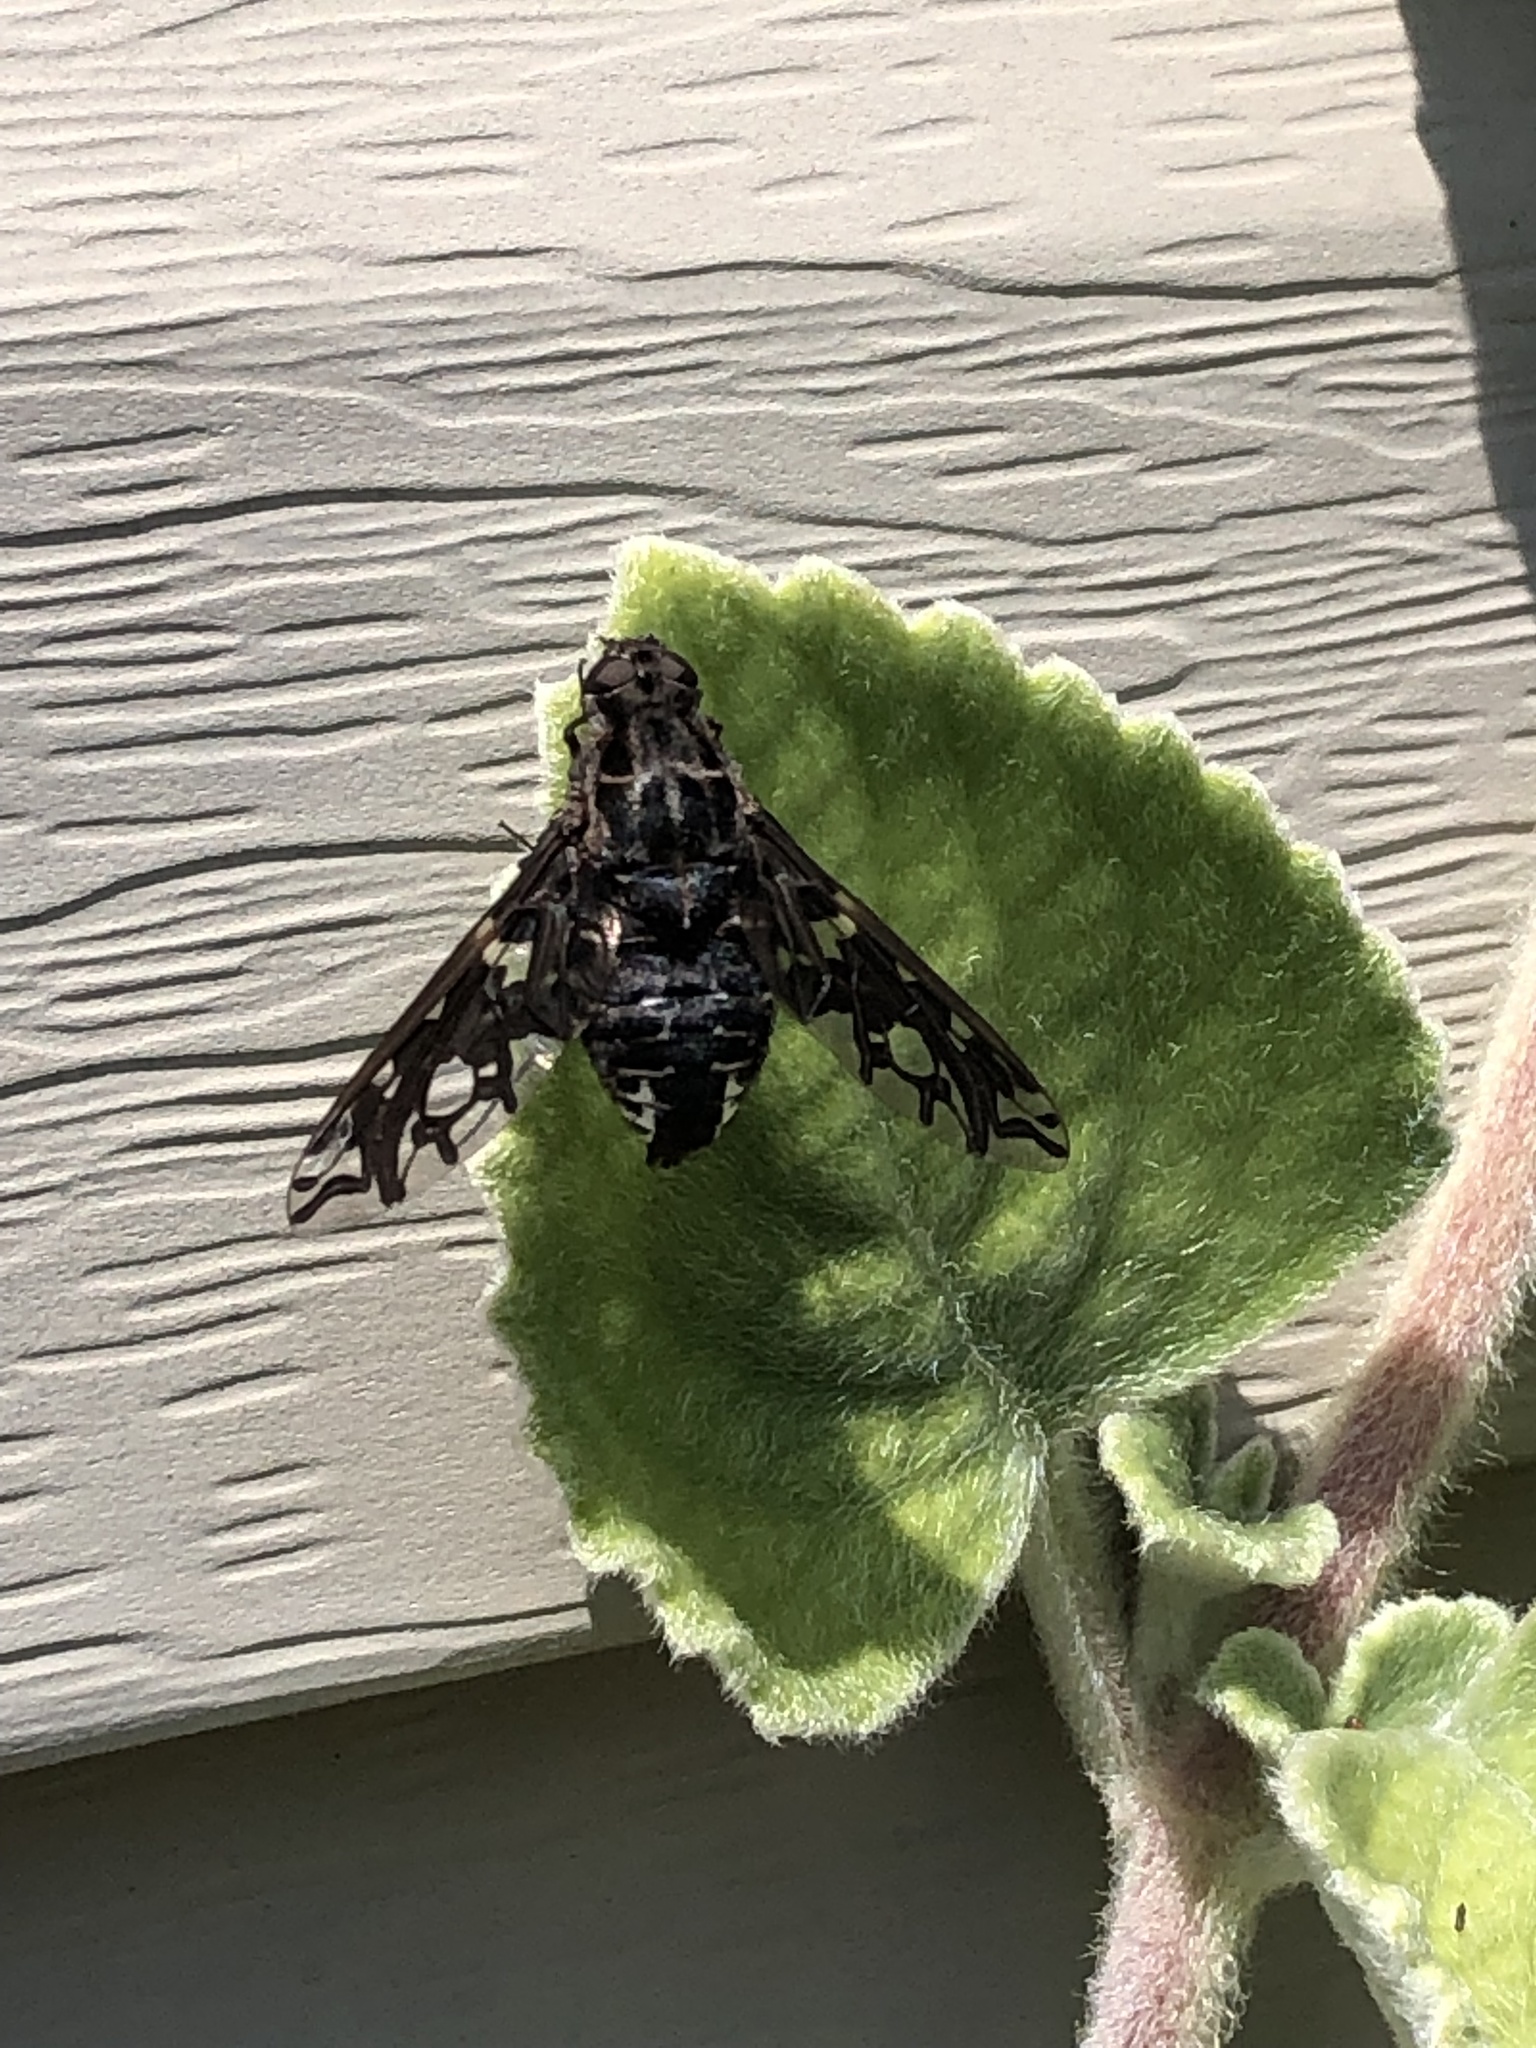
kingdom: Animalia
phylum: Arthropoda
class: Insecta
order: Diptera
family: Bombyliidae
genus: Xenox
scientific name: Xenox tigrinus
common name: Tiger bee fly
